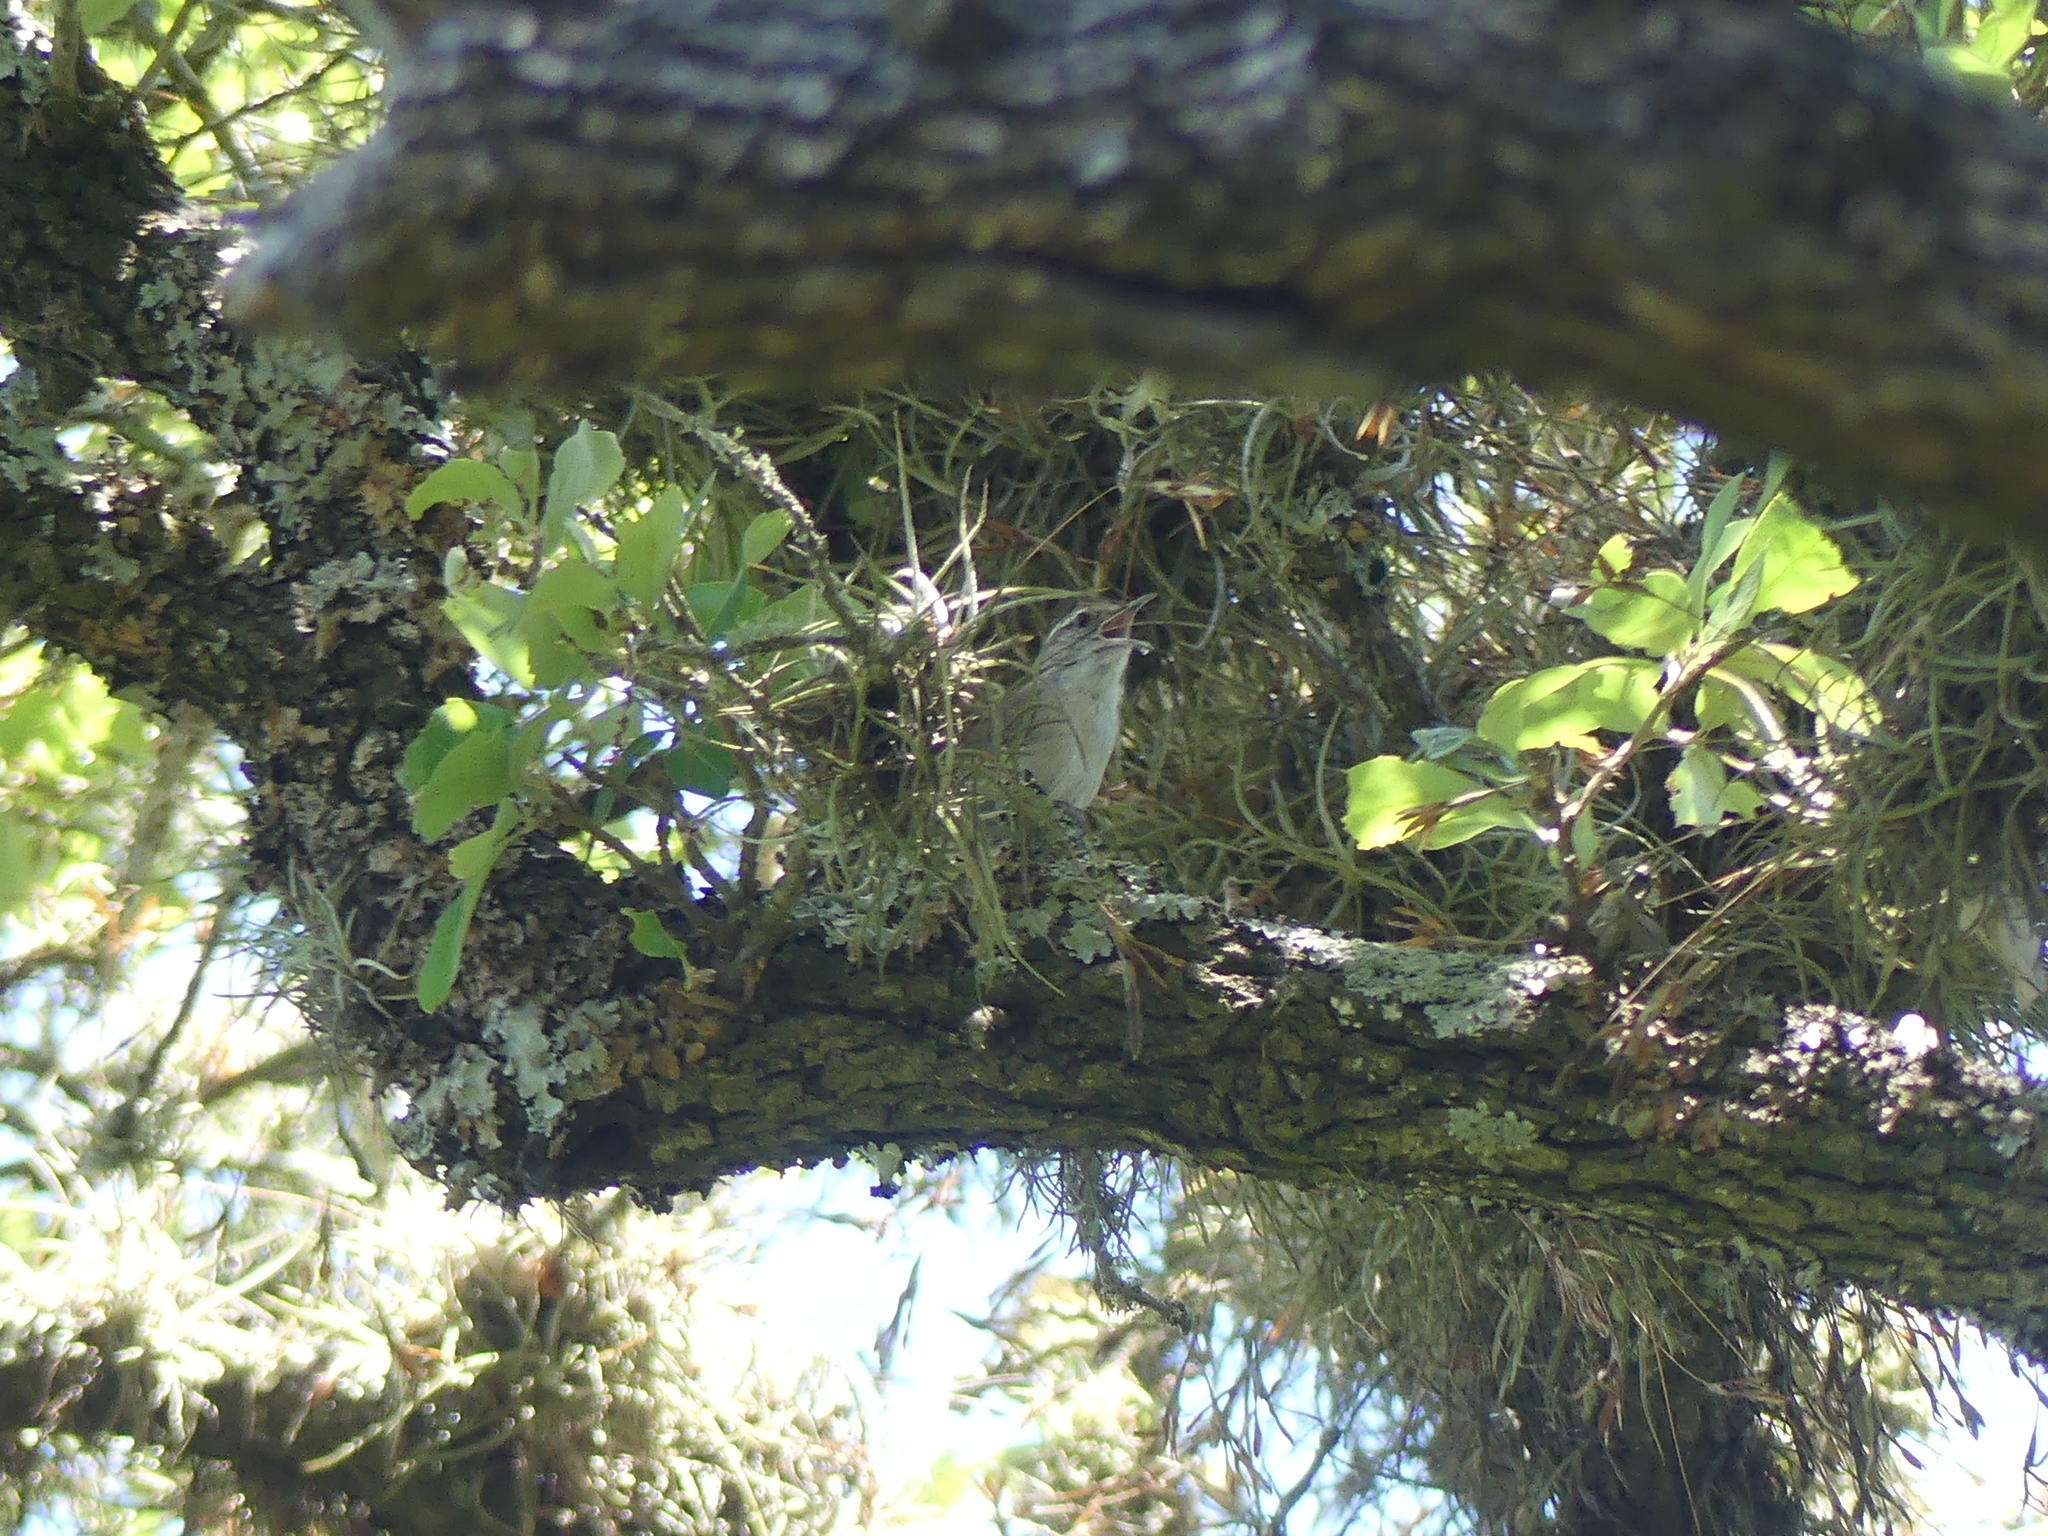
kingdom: Animalia
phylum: Chordata
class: Aves
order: Passeriformes
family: Troglodytidae
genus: Thryomanes
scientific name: Thryomanes bewickii
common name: Bewick's wren
